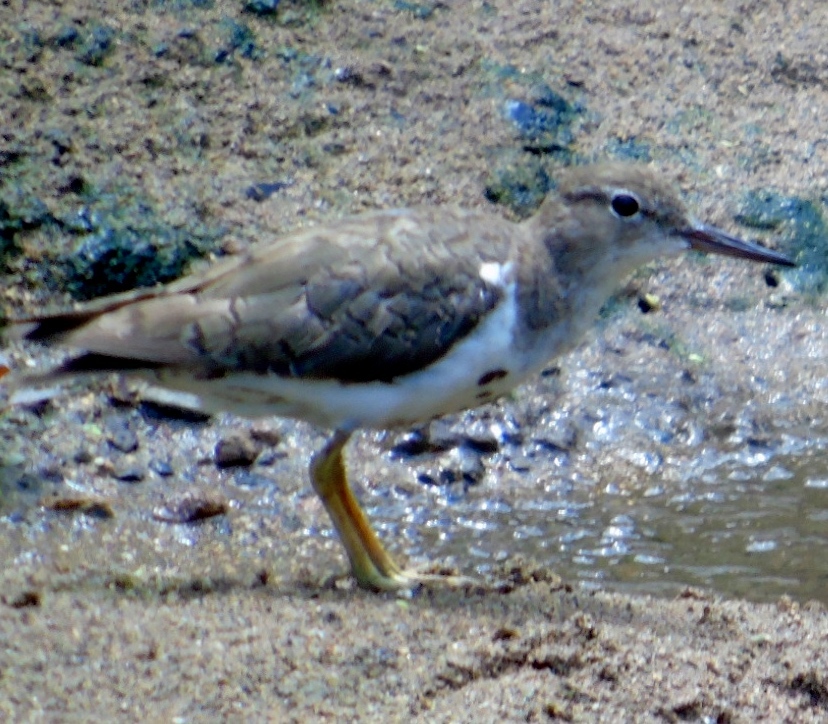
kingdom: Animalia
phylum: Chordata
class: Aves
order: Charadriiformes
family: Scolopacidae
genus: Actitis
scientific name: Actitis macularius
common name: Spotted sandpiper
